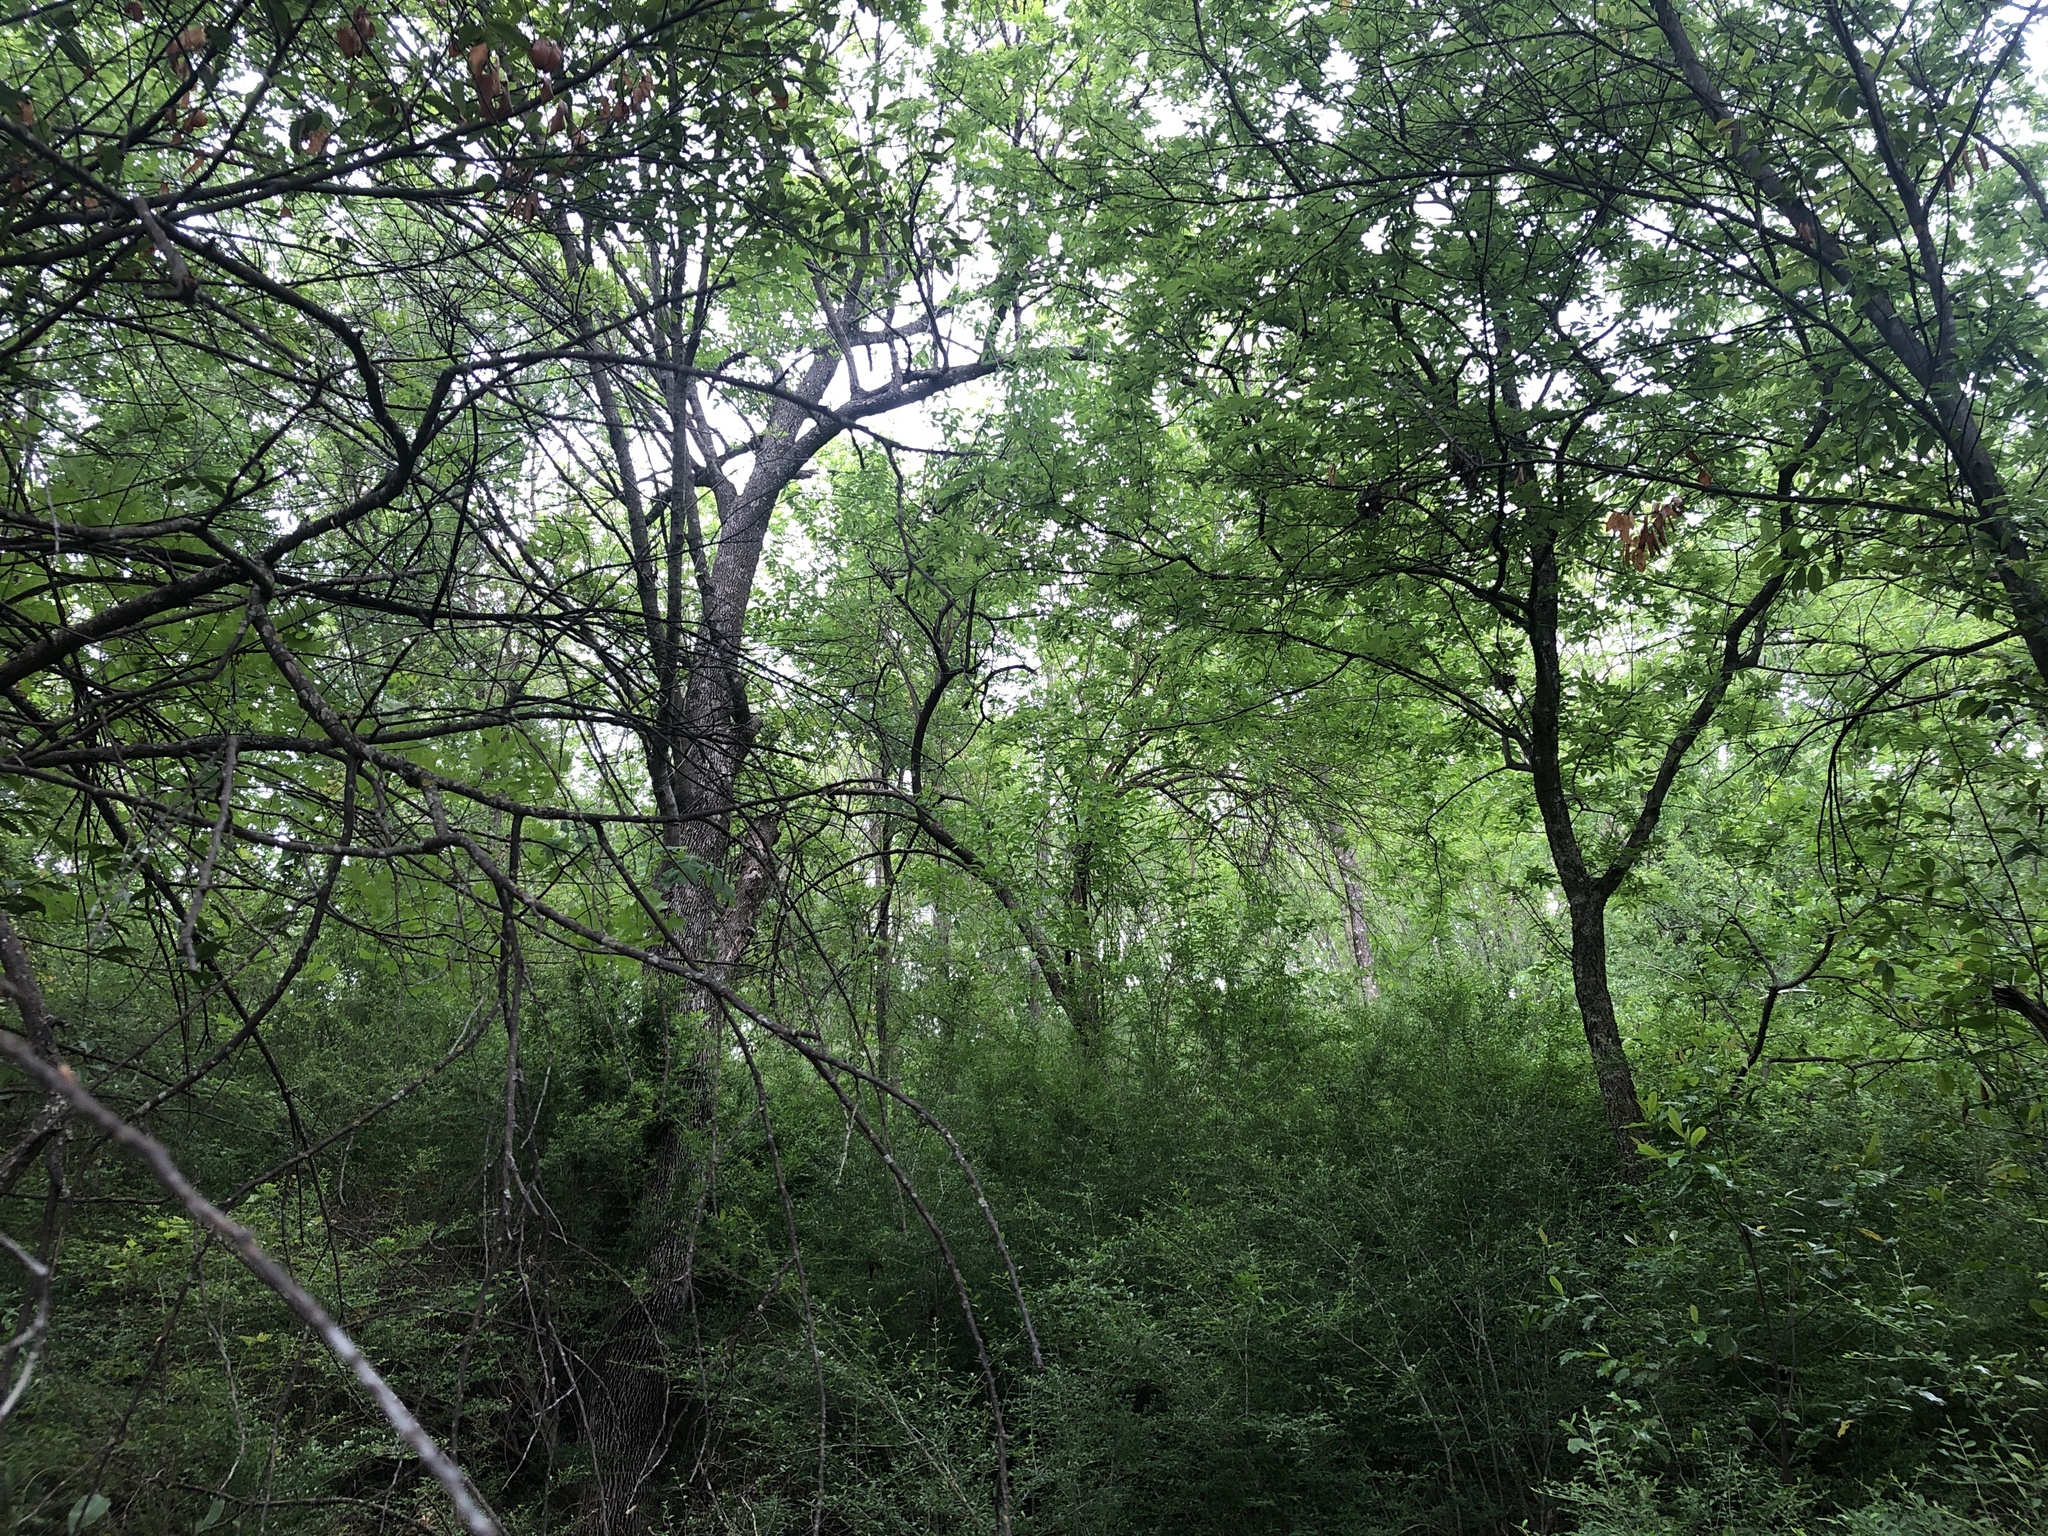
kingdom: Animalia
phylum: Chordata
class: Aves
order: Passeriformes
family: Parulidae
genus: Leiothlypis
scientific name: Leiothlypis celata
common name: Orange-crowned warbler
